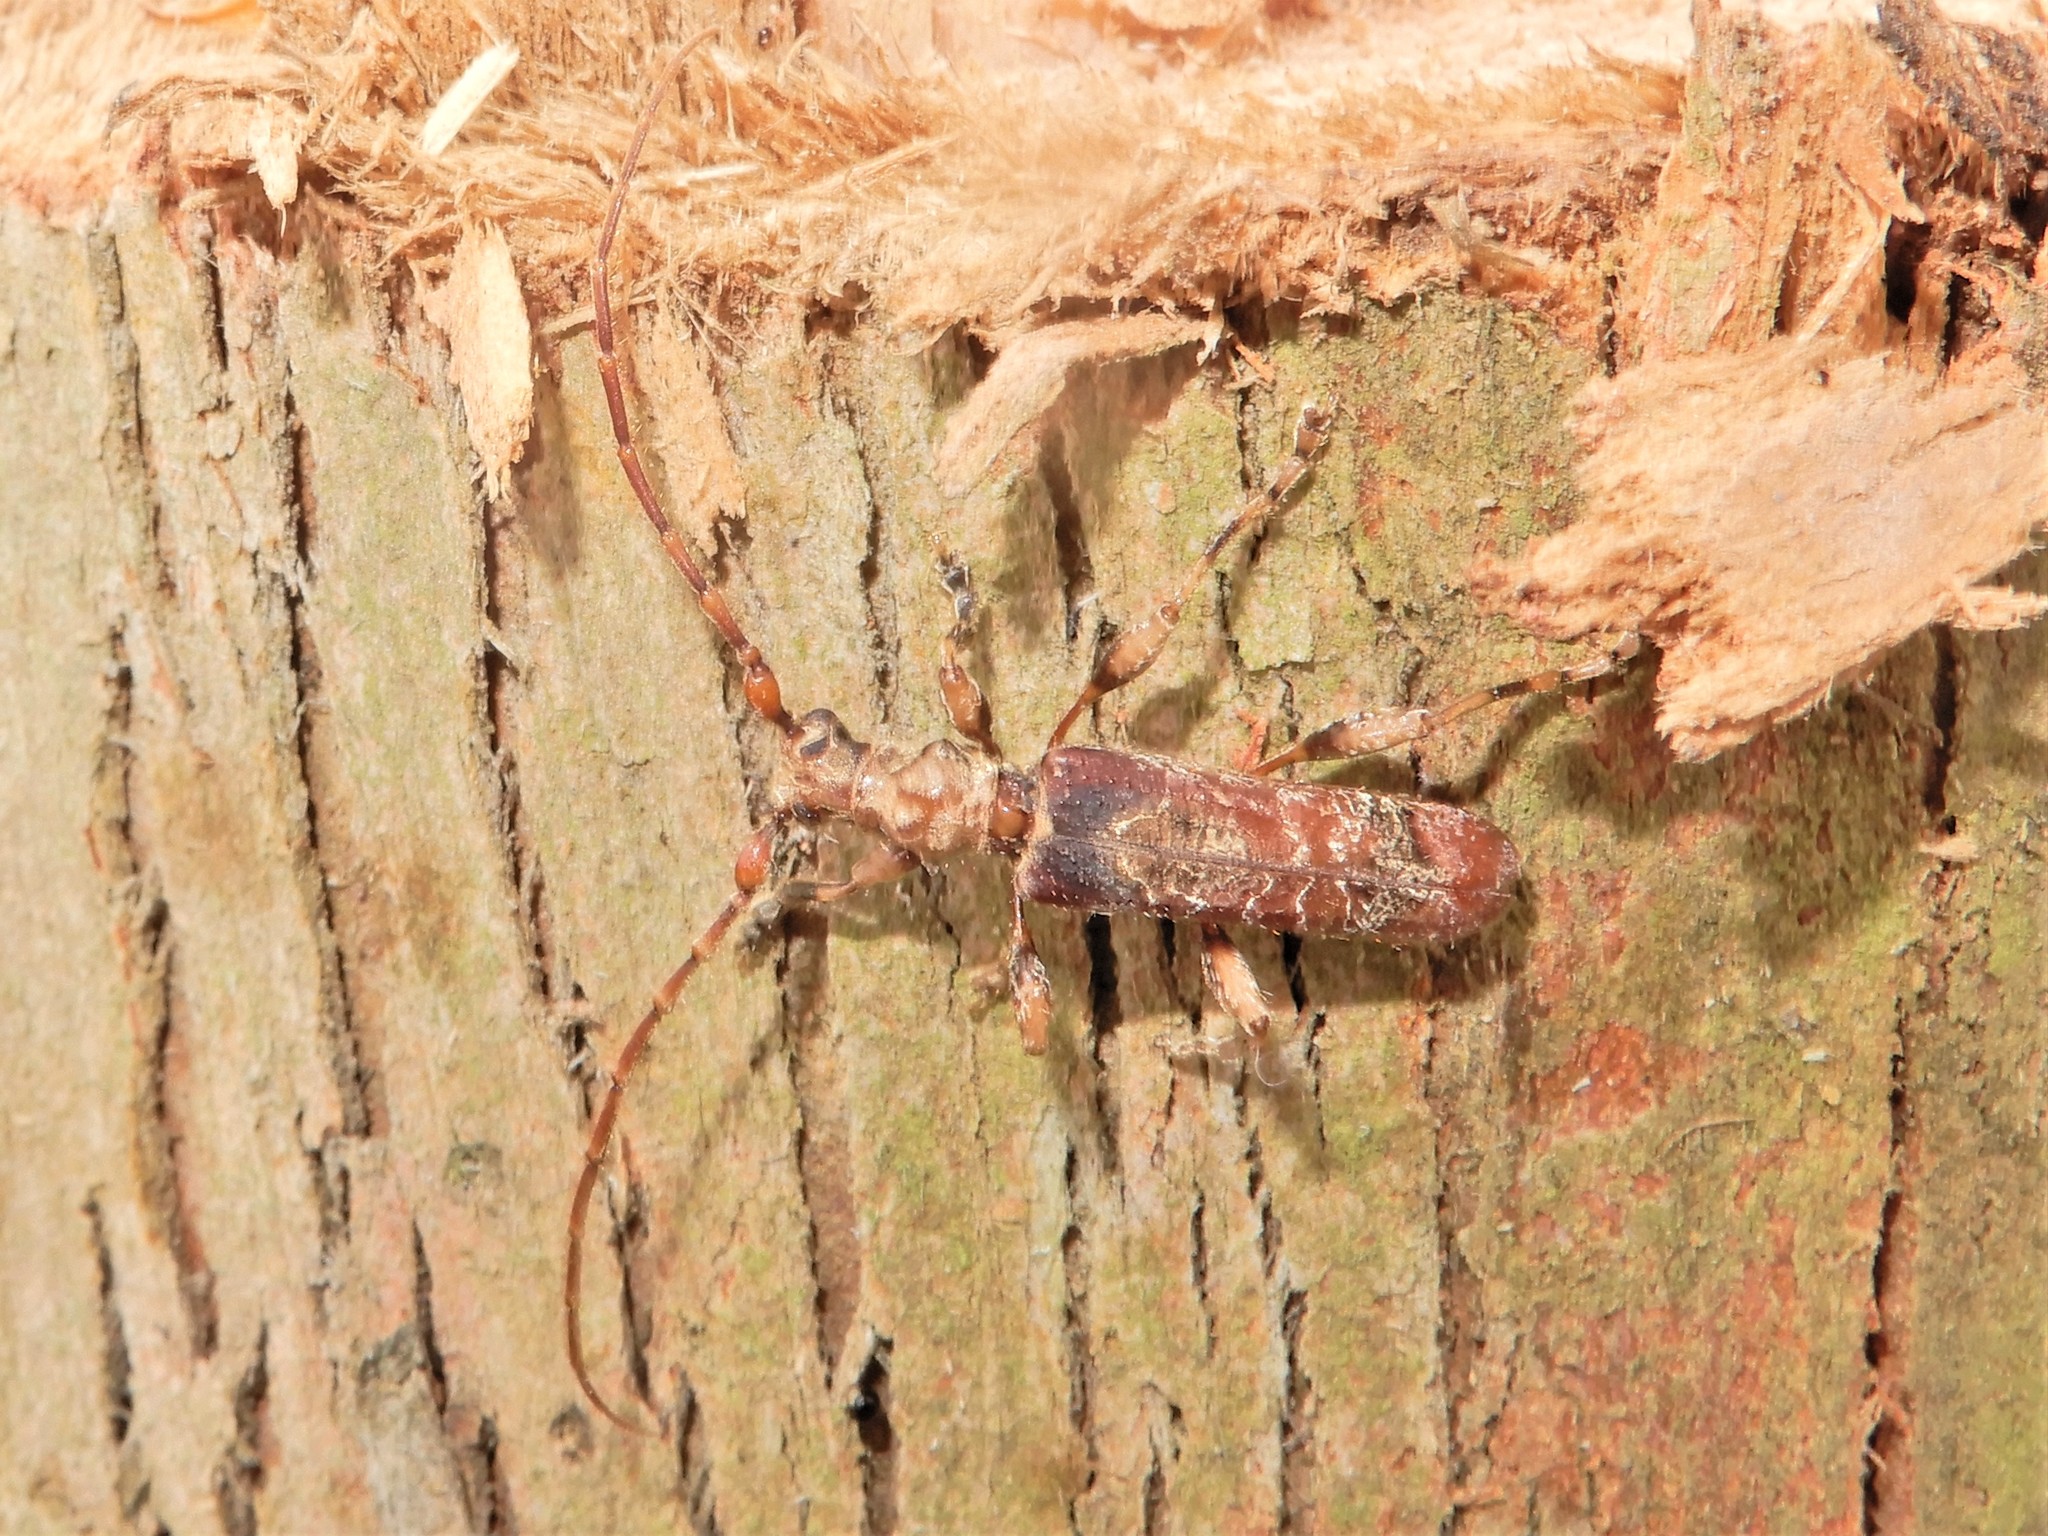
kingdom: Animalia
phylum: Arthropoda
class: Insecta
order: Coleoptera
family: Cerambycidae
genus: Tessaromma
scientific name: Tessaromma undatum
